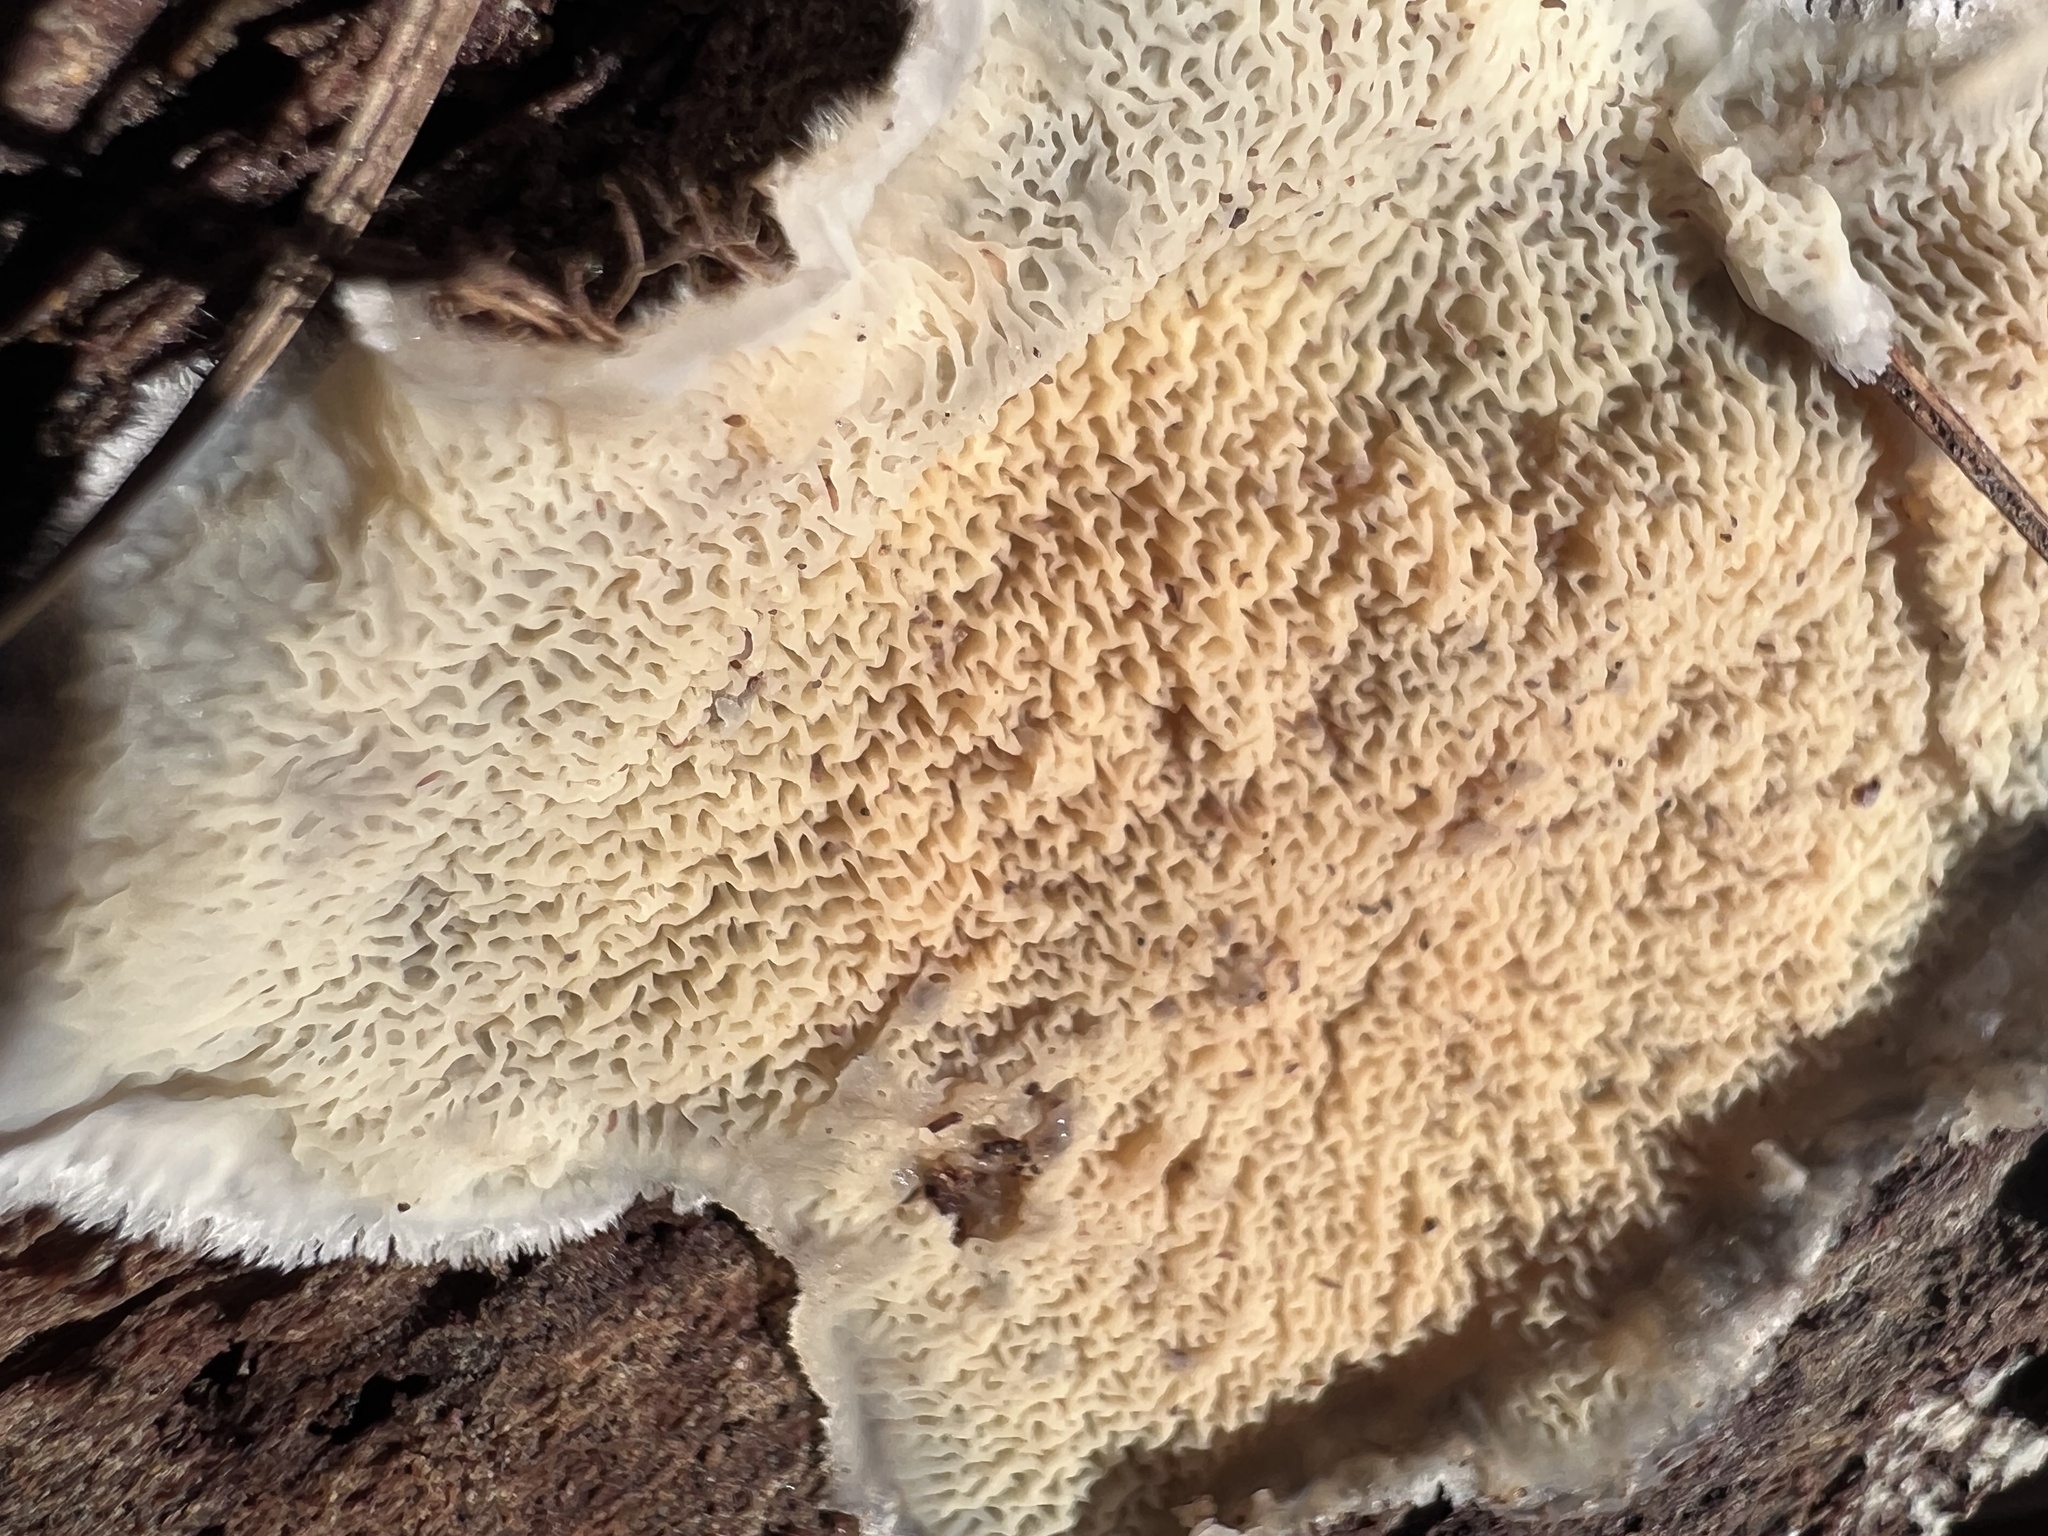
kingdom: Fungi
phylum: Basidiomycota
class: Agaricomycetes
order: Polyporales
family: Meruliaceae
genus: Phlebia
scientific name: Phlebia tremellosa
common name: Jelly rot
